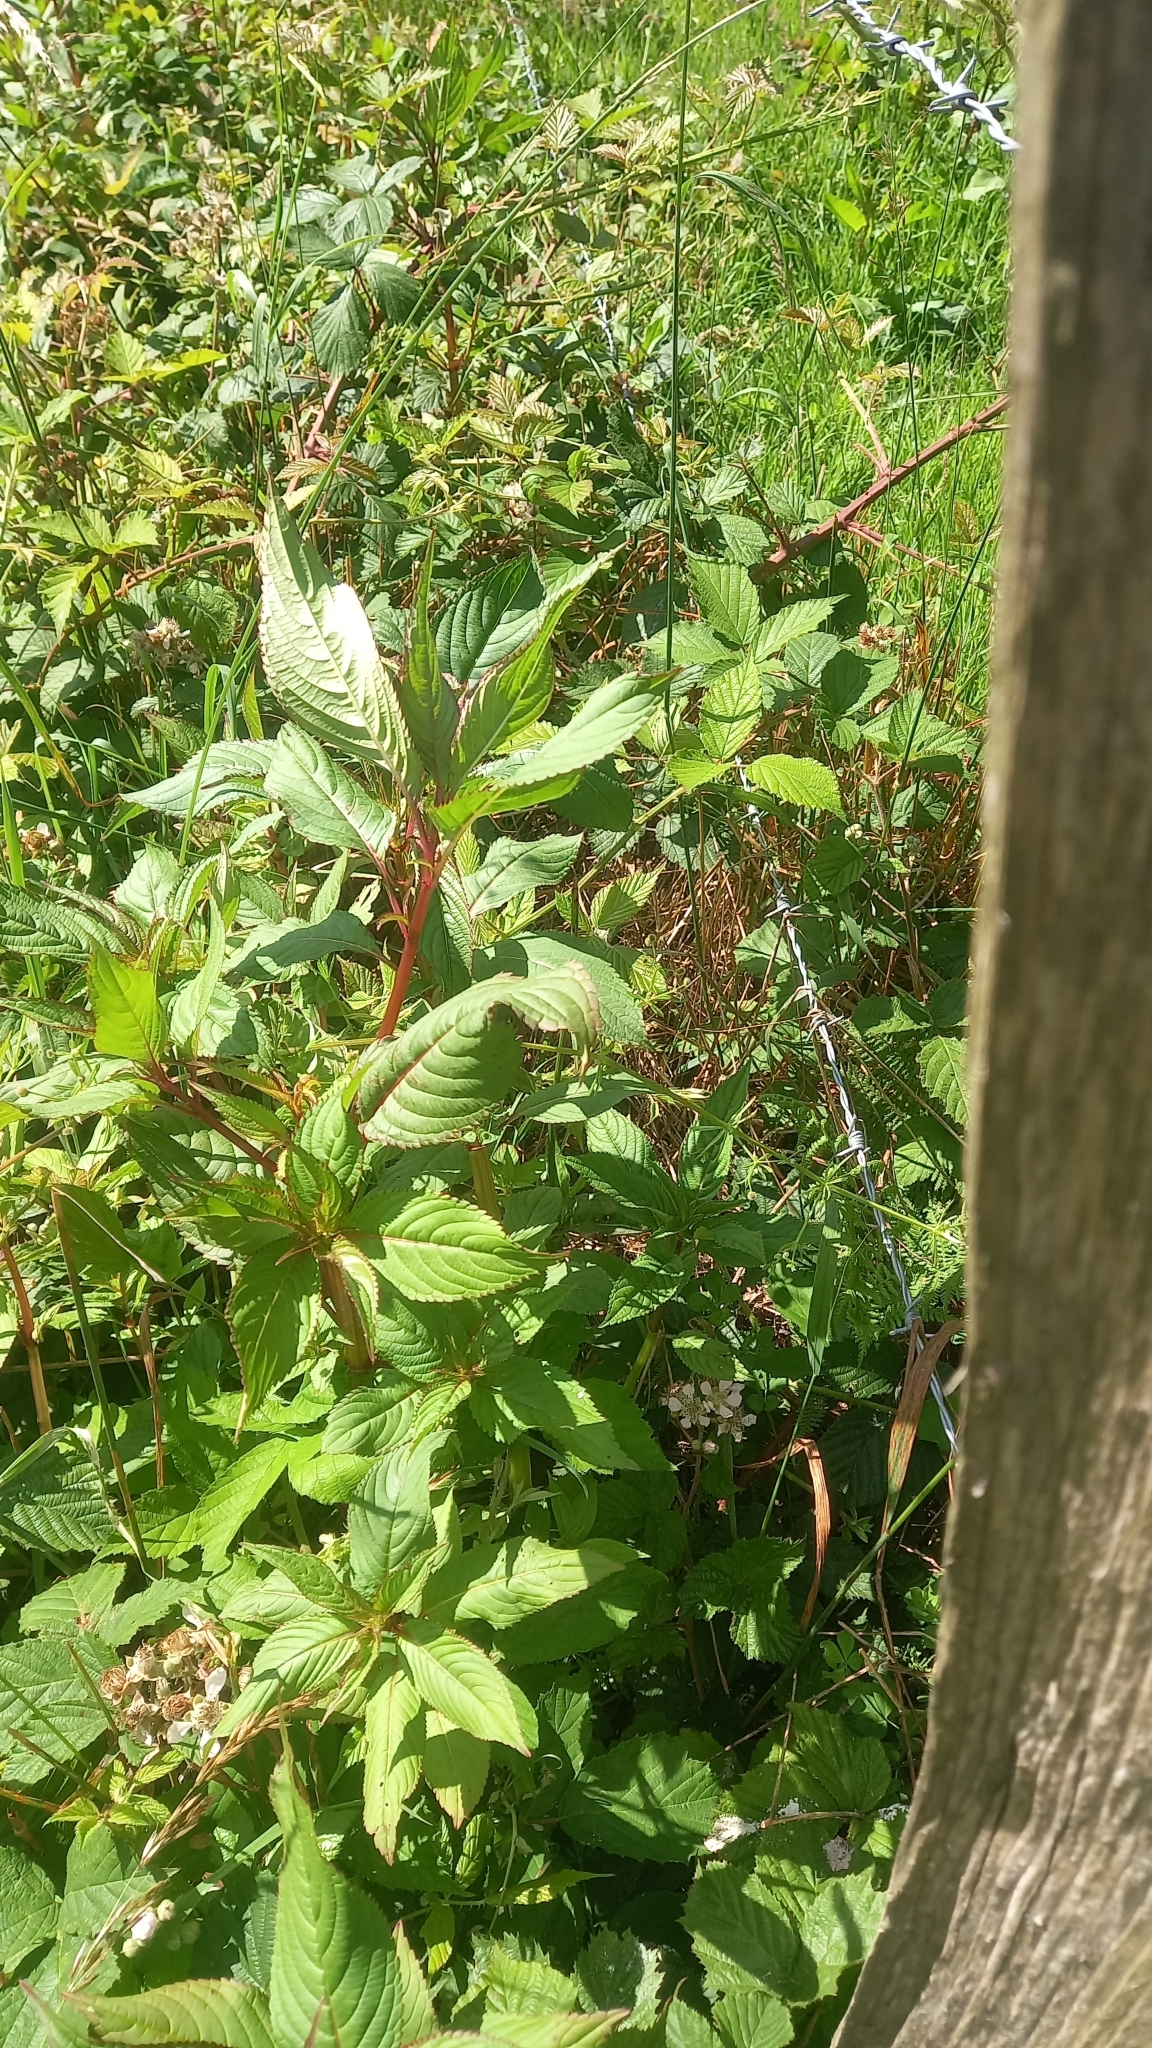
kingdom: Plantae
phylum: Tracheophyta
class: Magnoliopsida
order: Ericales
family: Balsaminaceae
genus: Impatiens
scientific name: Impatiens glandulifera
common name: Himalayan balsam
